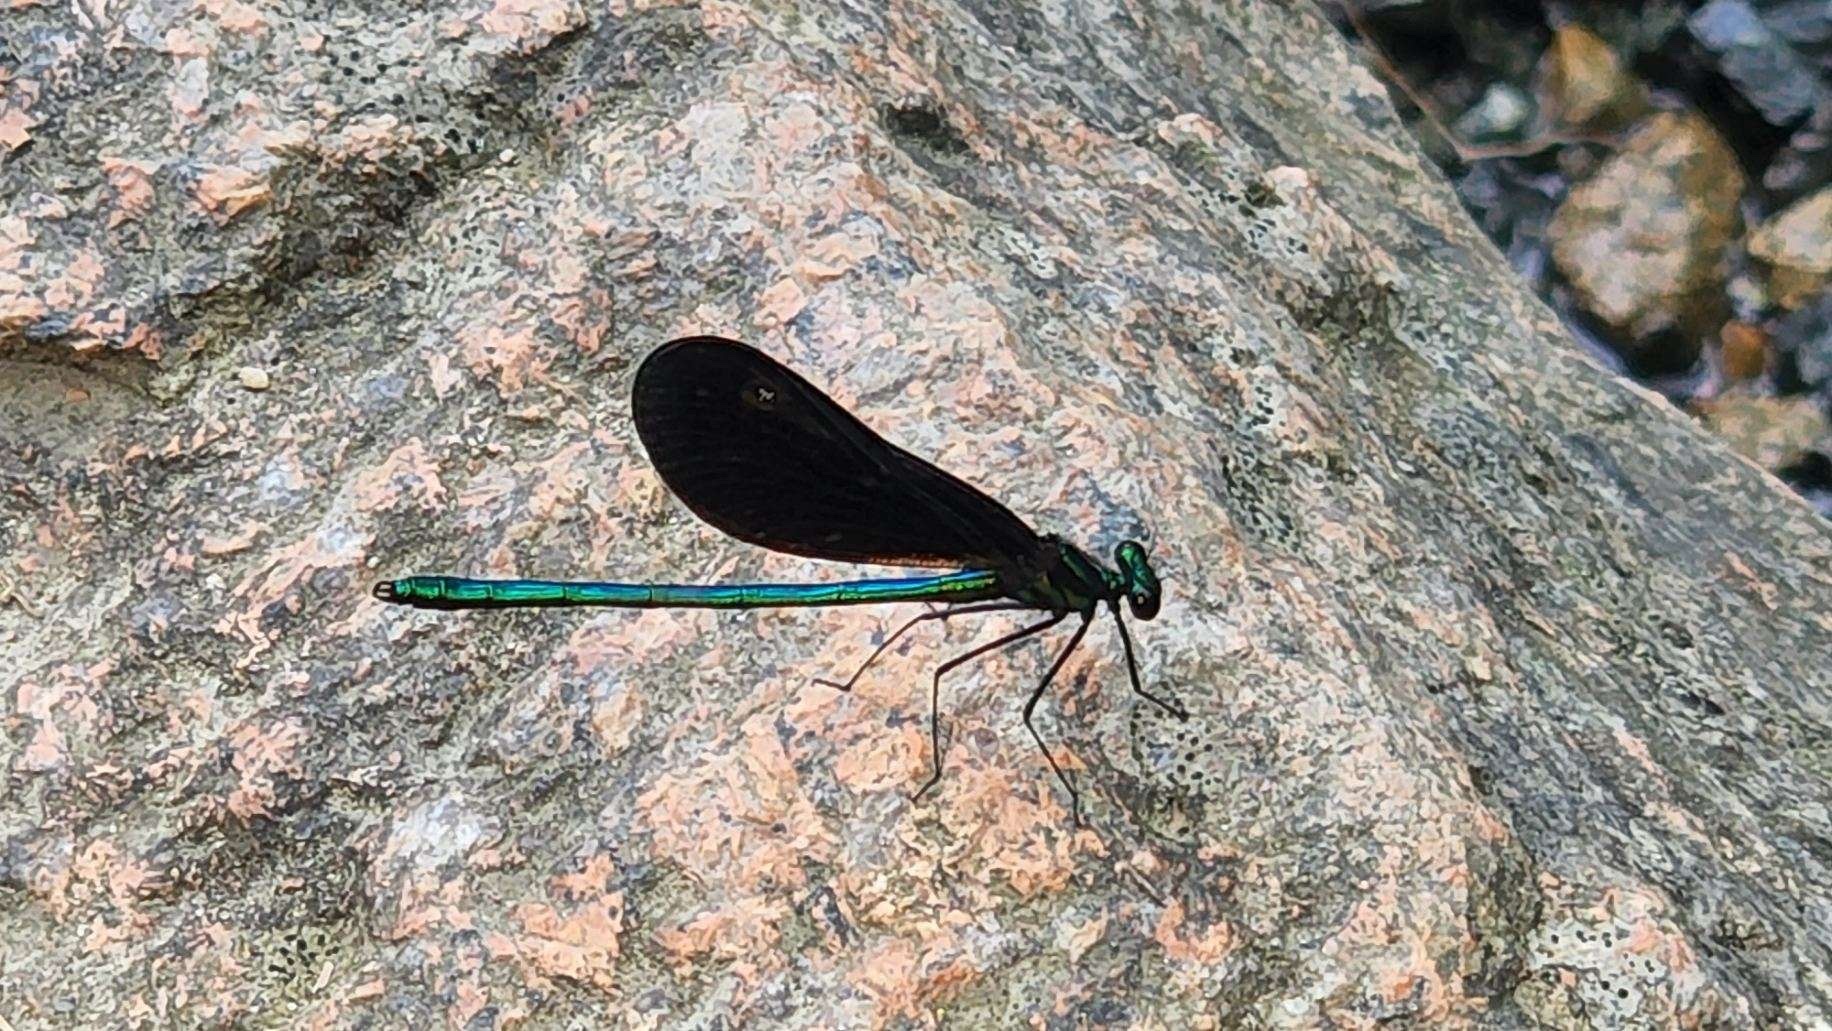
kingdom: Animalia
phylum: Arthropoda
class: Insecta
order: Odonata
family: Calopterygidae
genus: Calopteryx
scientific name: Calopteryx maculata
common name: Ebony jewelwing
